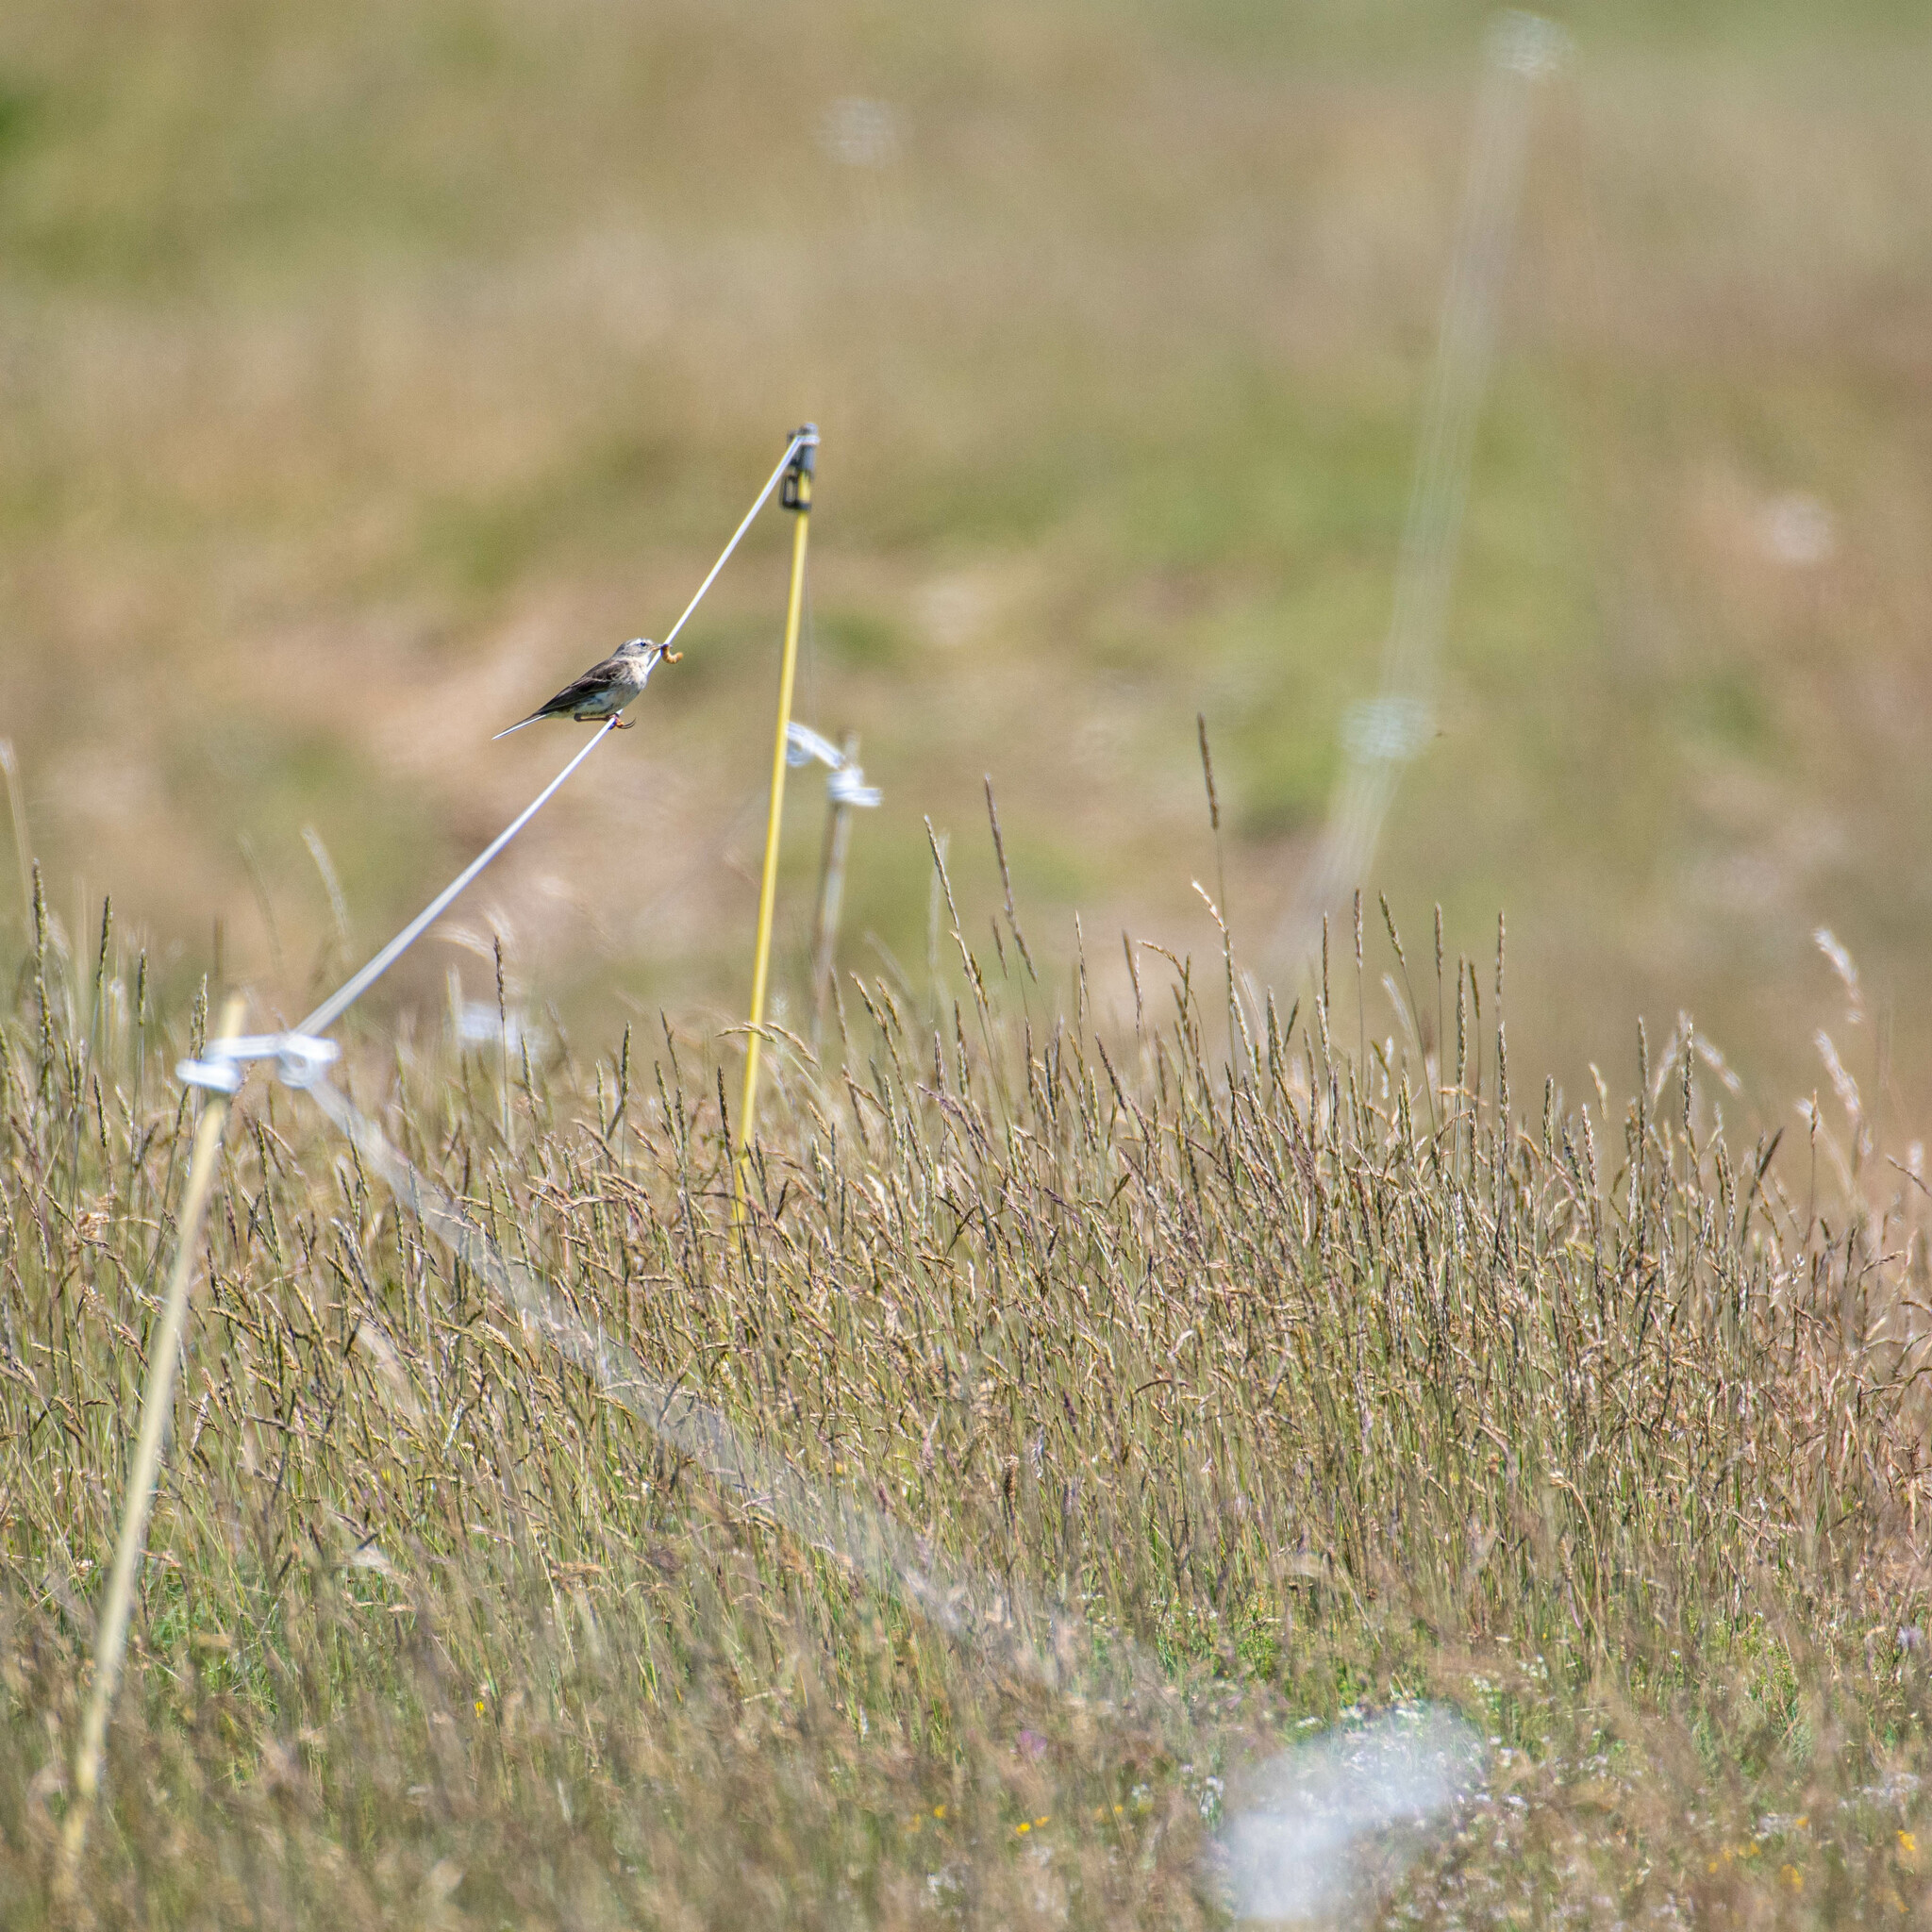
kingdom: Animalia
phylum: Chordata
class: Aves
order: Passeriformes
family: Motacillidae
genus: Anthus
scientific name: Anthus spinoletta
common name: Water pipit
